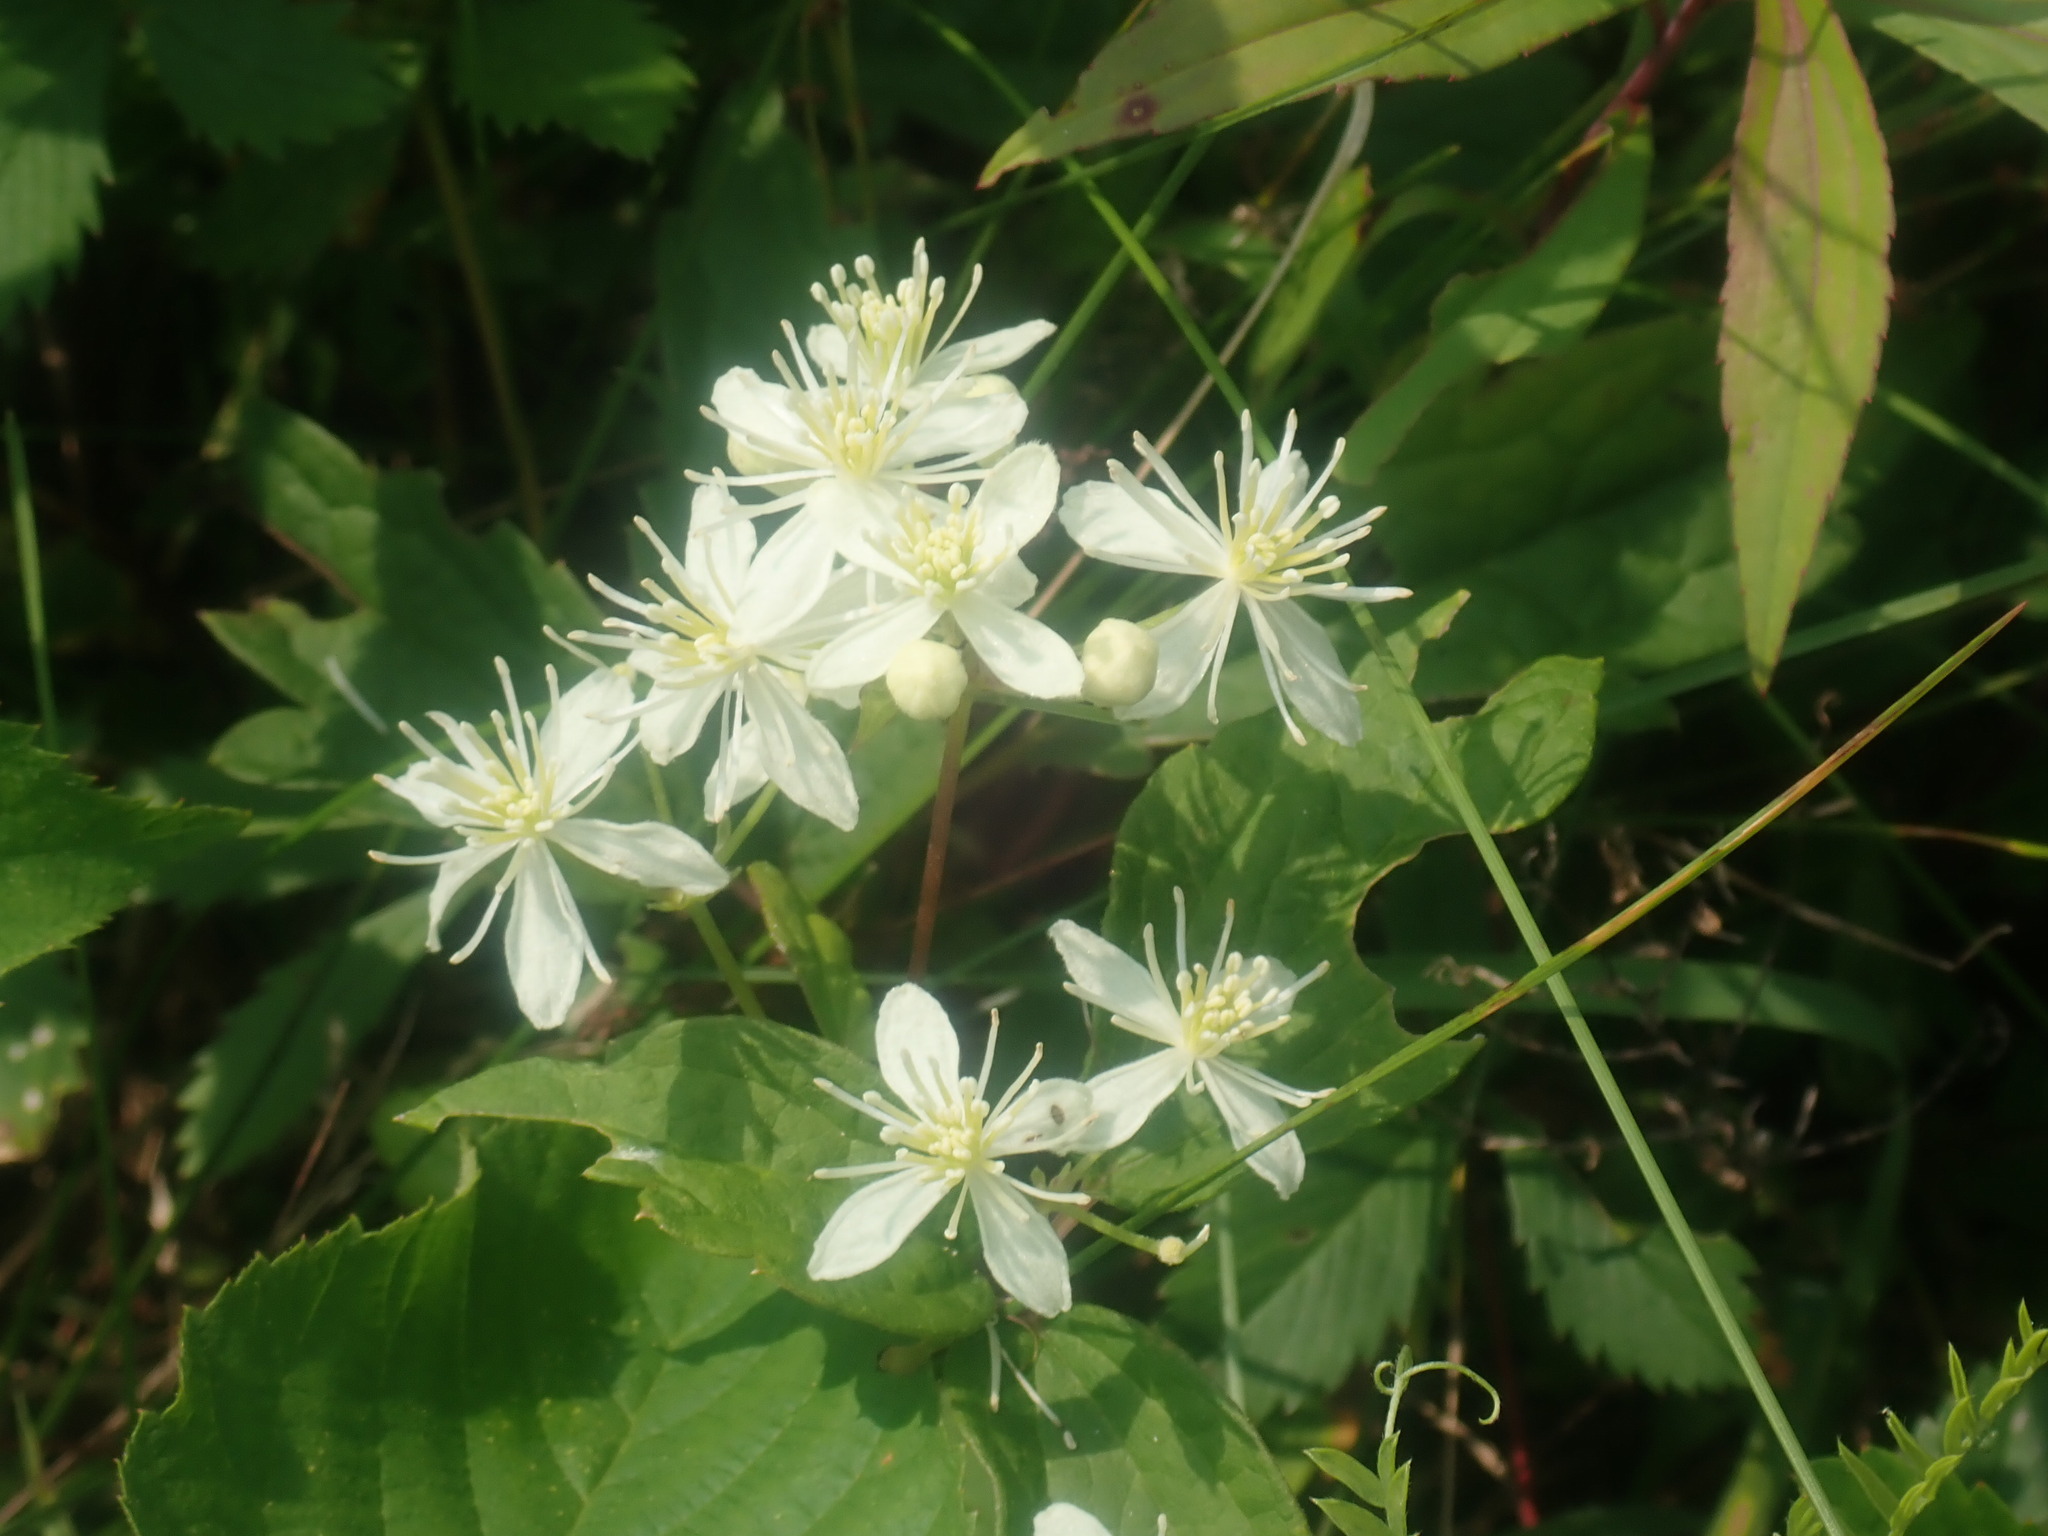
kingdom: Plantae
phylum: Tracheophyta
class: Magnoliopsida
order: Ranunculales
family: Ranunculaceae
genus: Clematis
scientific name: Clematis virginiana
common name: Virgin's-bower
